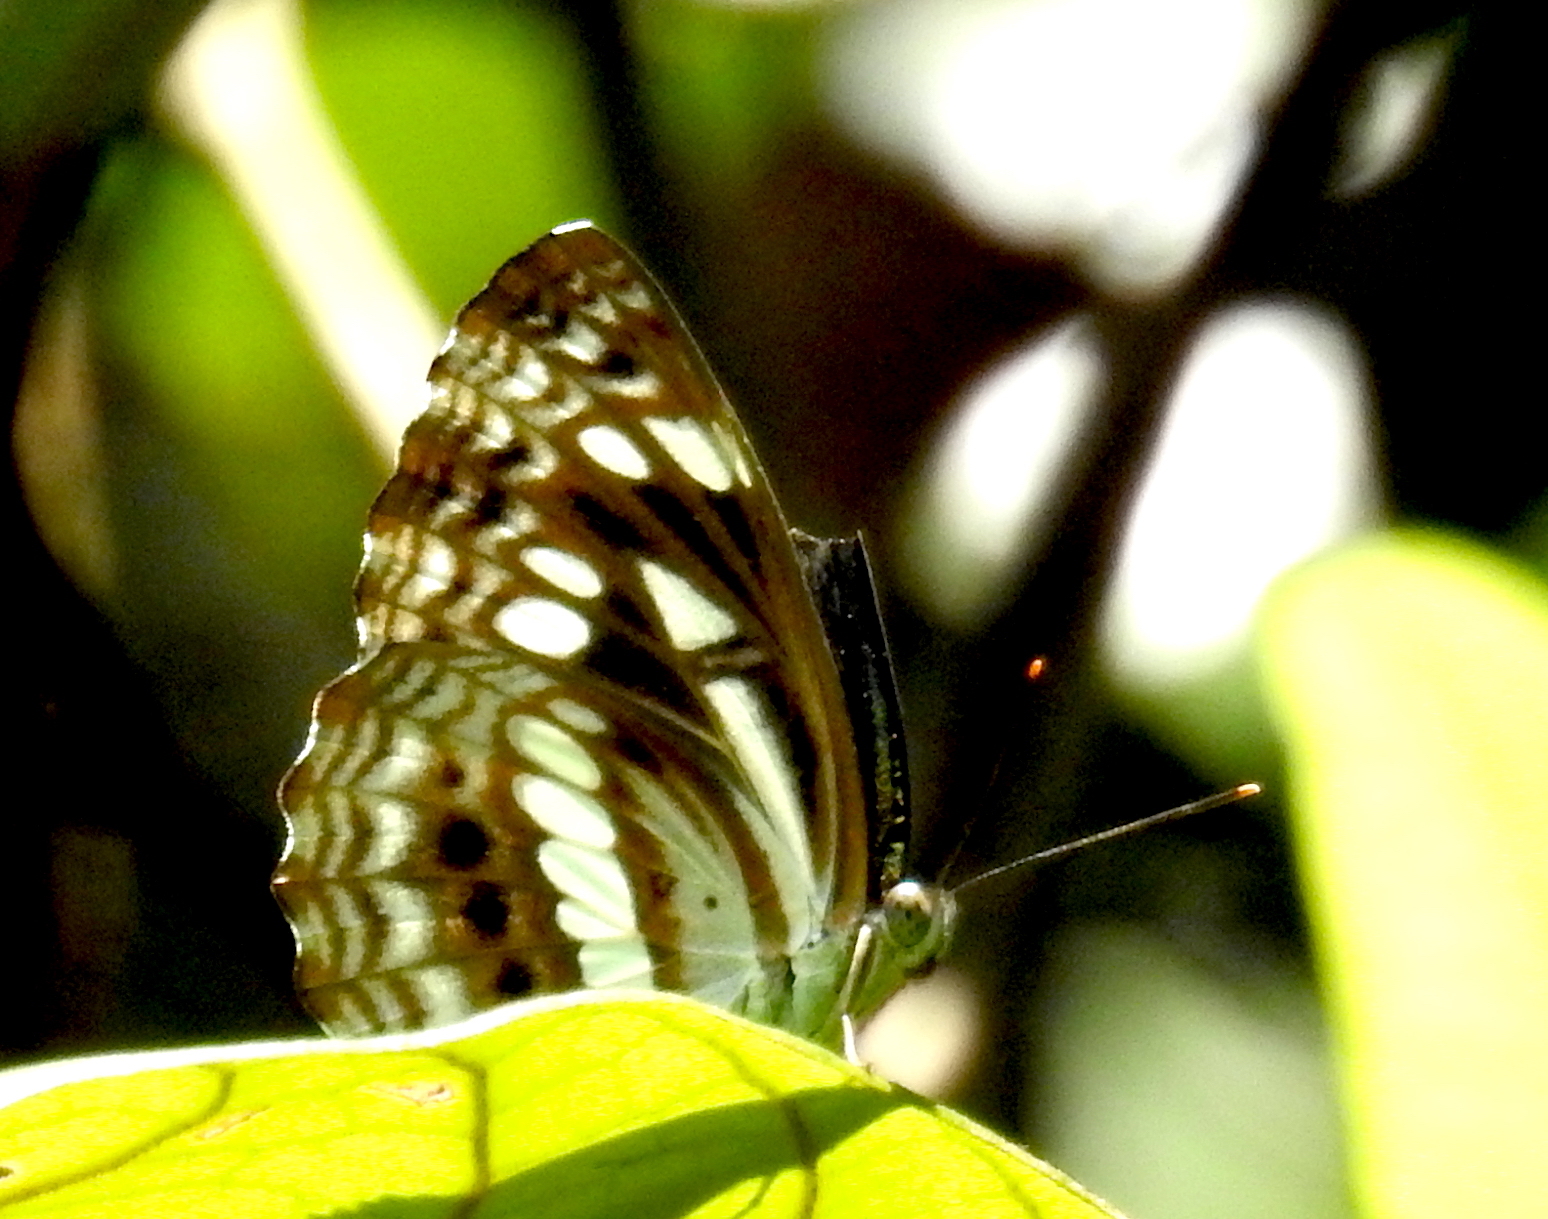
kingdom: Animalia
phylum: Arthropoda
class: Insecta
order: Lepidoptera
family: Nymphalidae
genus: Neptis
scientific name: Neptis jumbah
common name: Chestnut-streaked sailer
